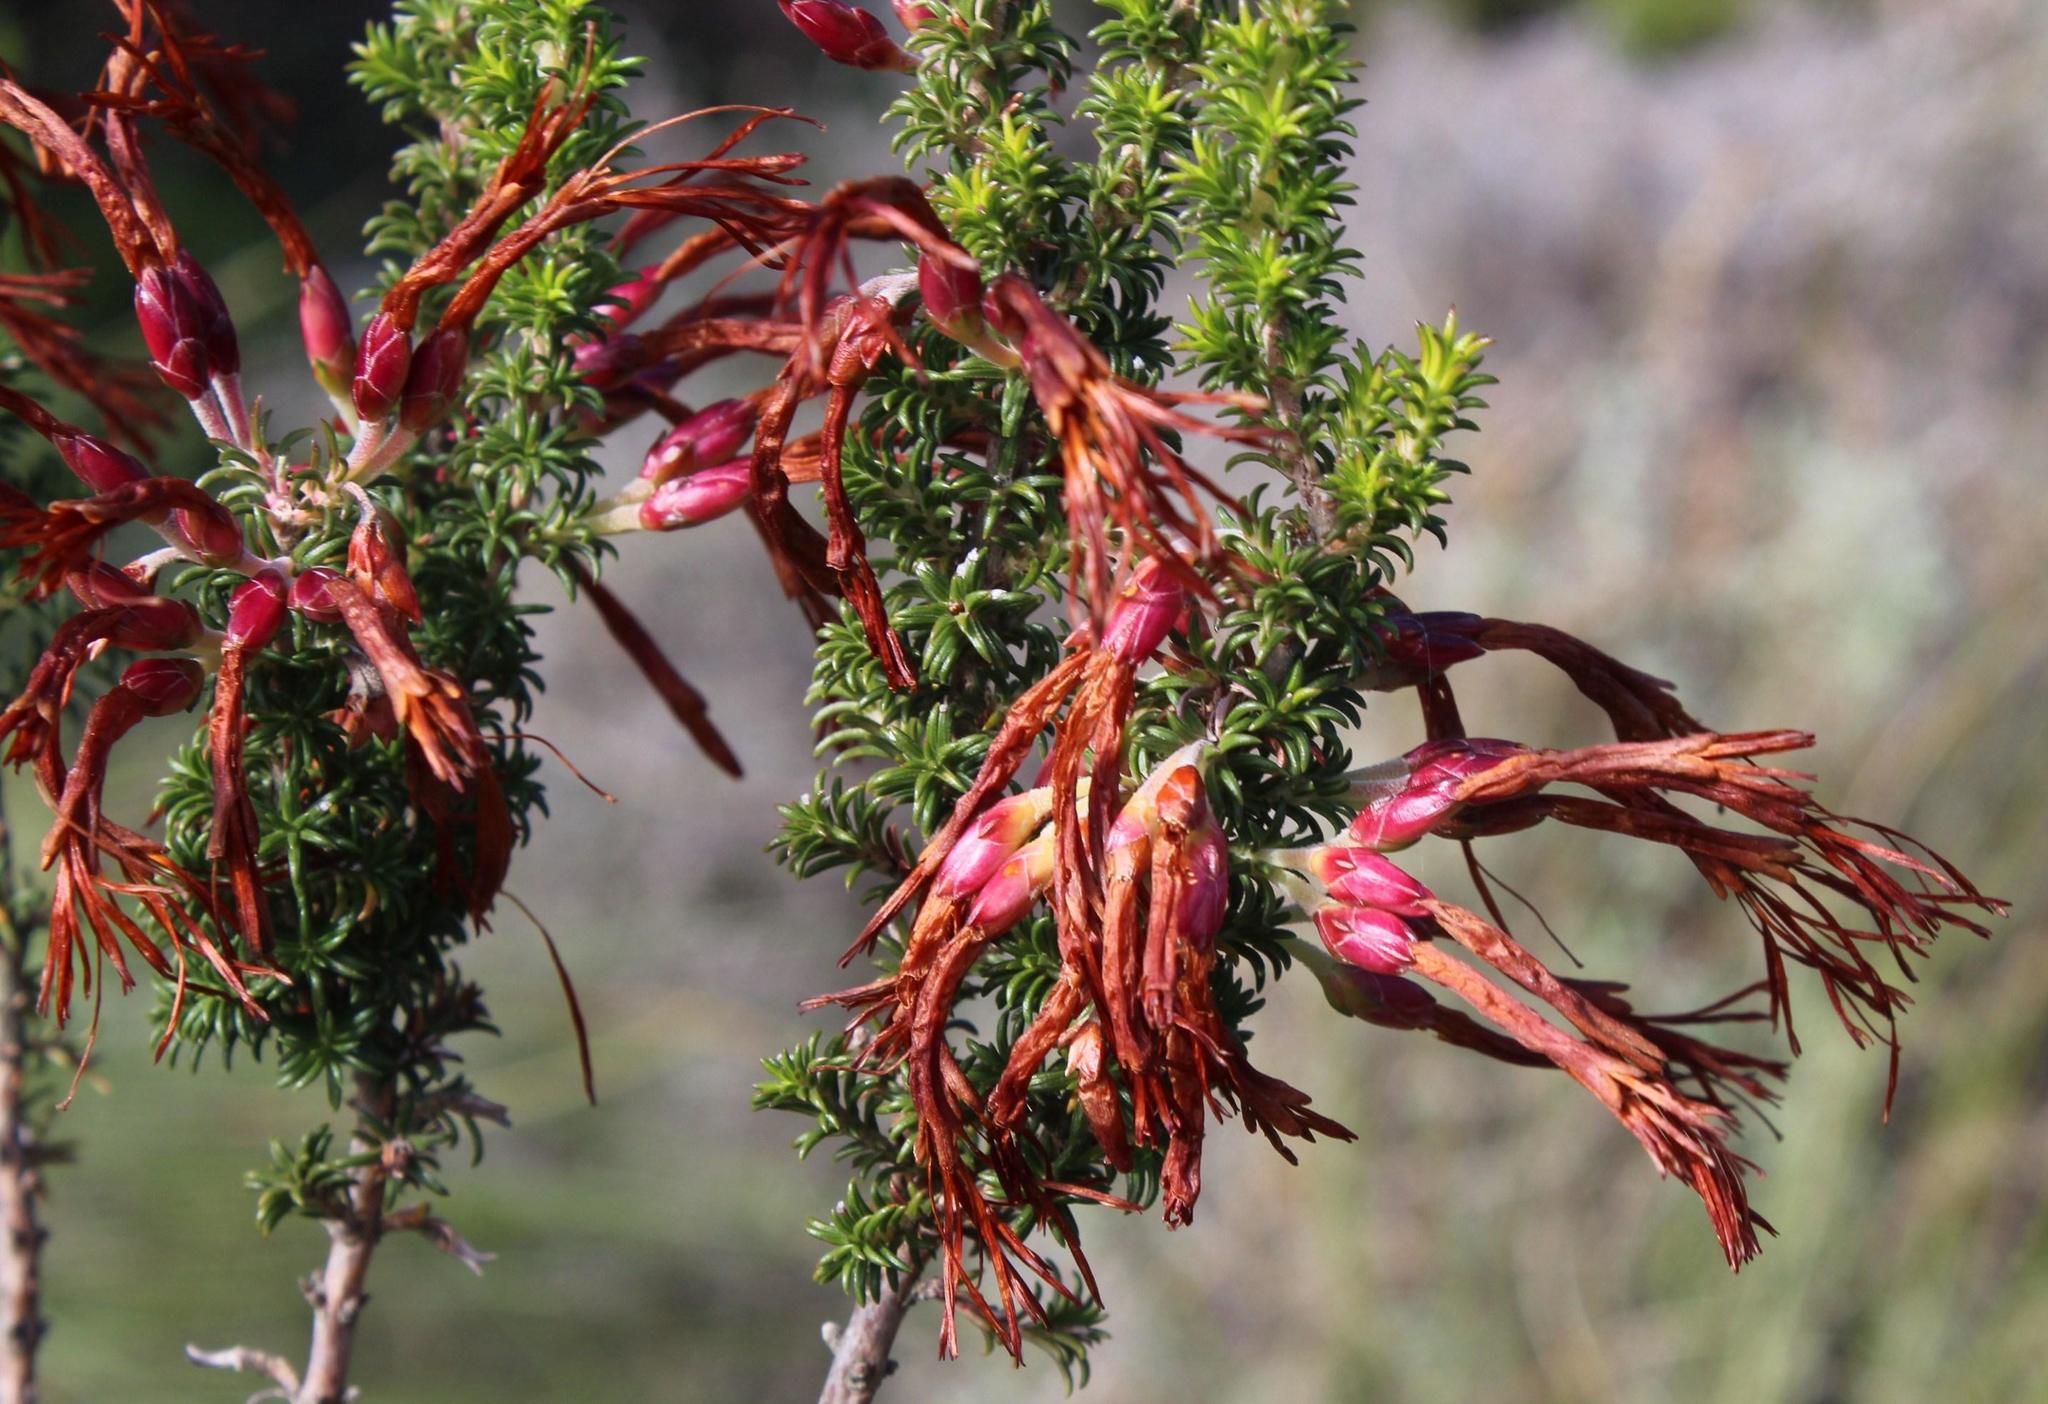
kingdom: Plantae
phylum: Tracheophyta
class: Magnoliopsida
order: Ericales
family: Ericaceae
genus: Erica
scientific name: Erica coccinea
